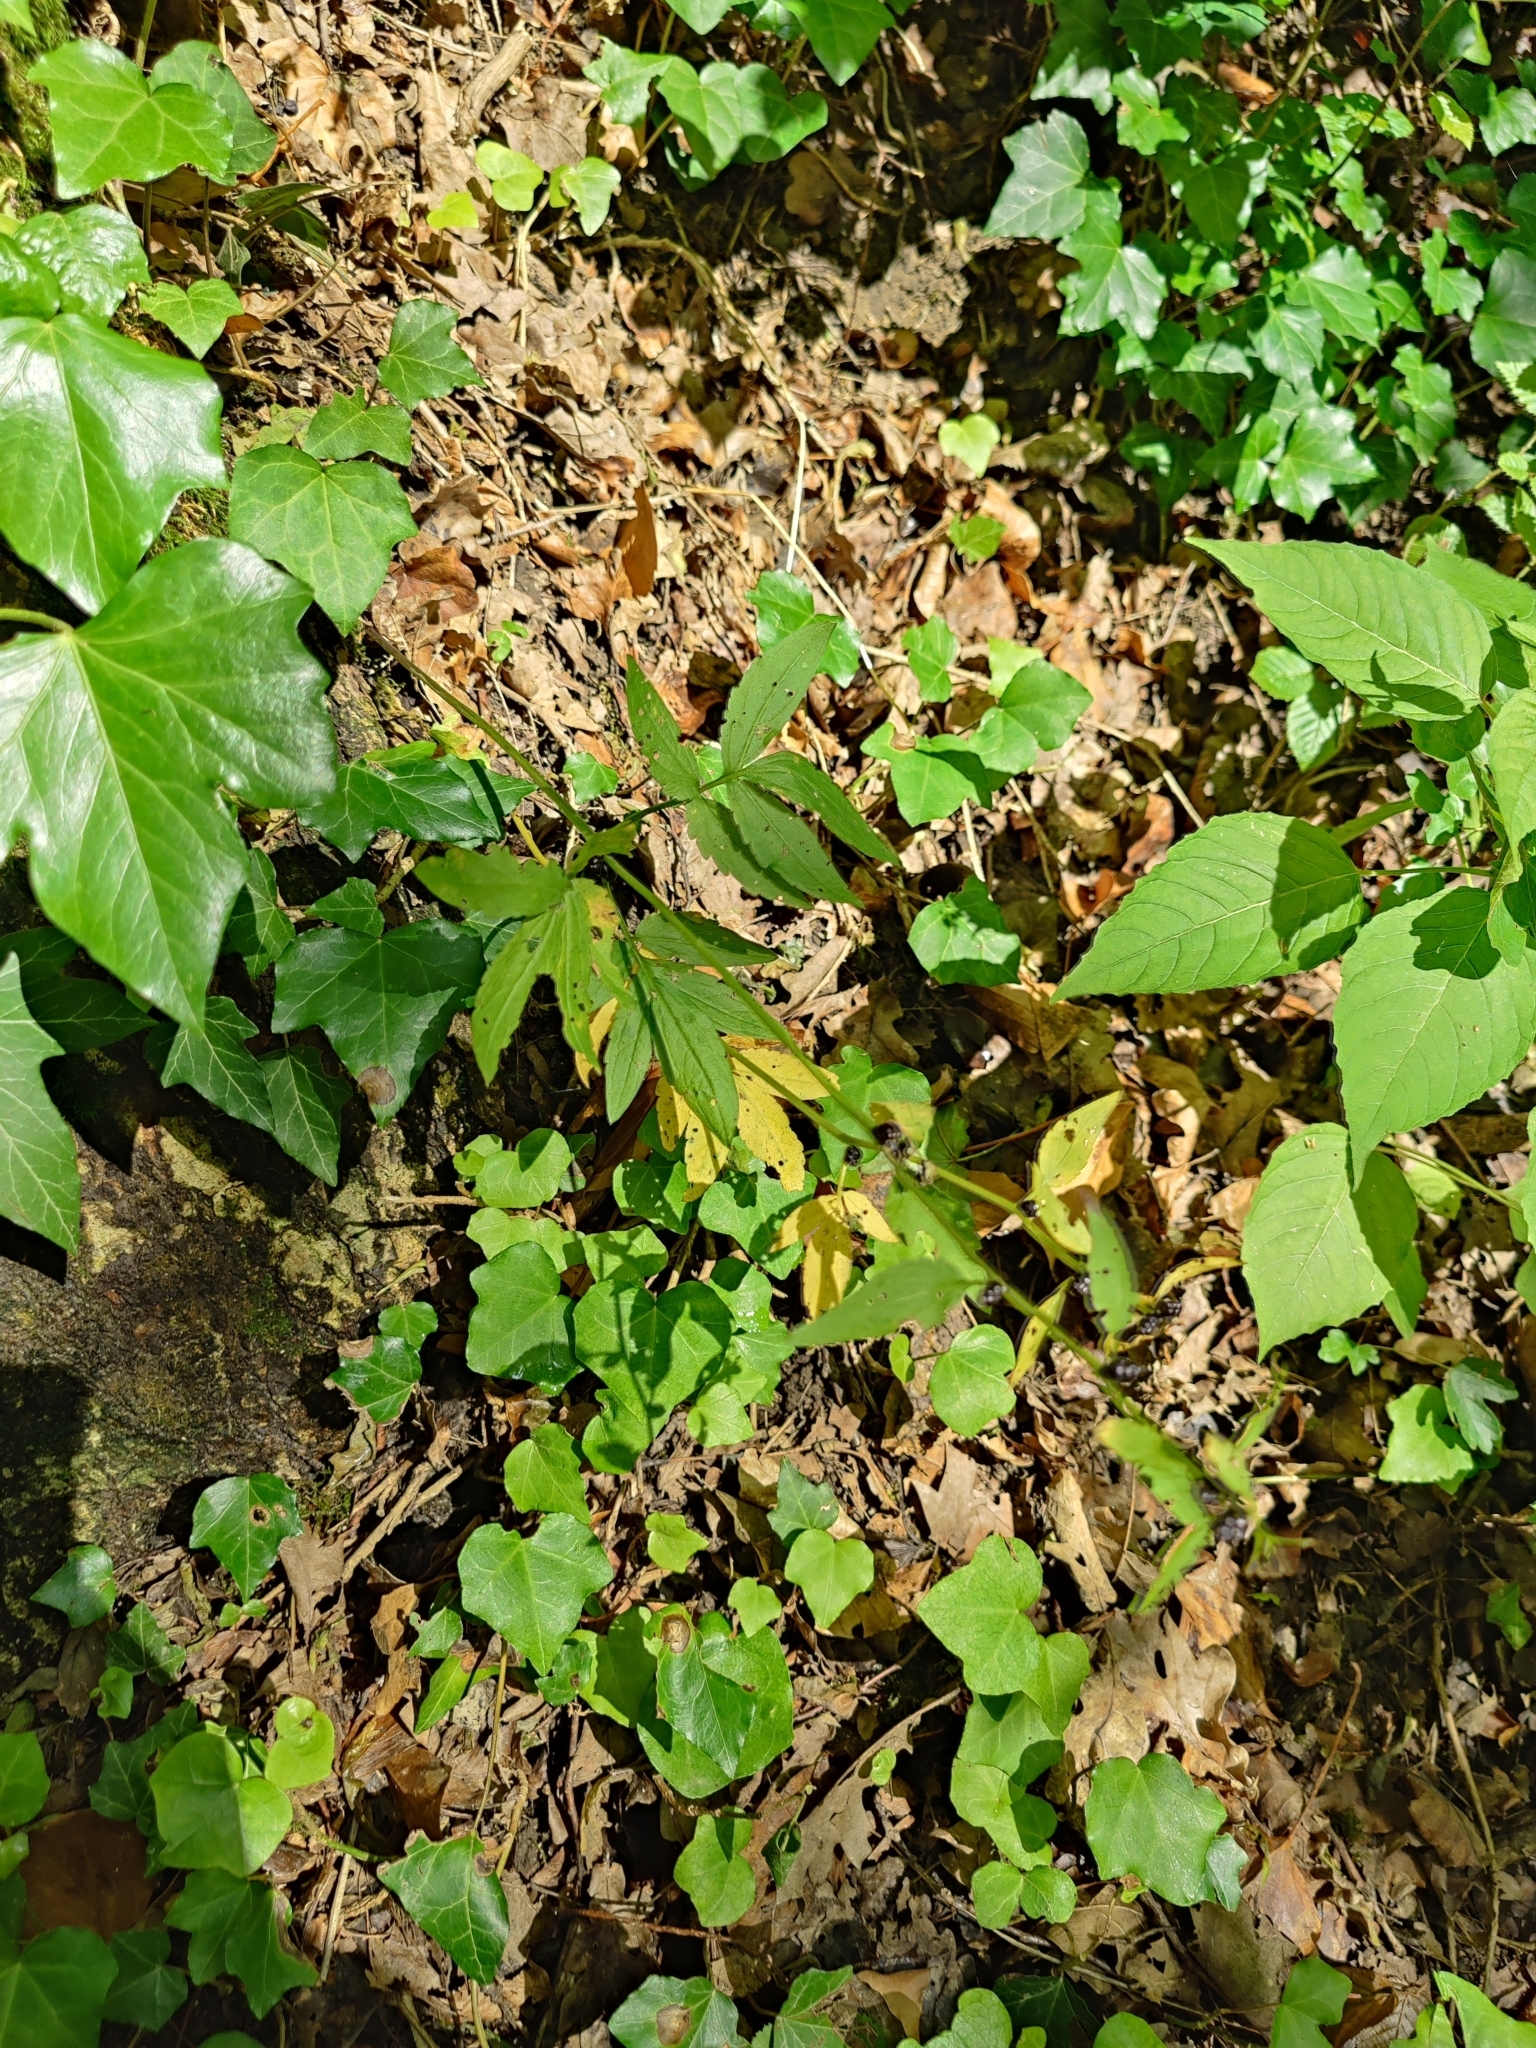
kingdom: Plantae
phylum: Tracheophyta
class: Magnoliopsida
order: Brassicales
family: Brassicaceae
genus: Cardamine
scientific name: Cardamine bulbifera
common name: Coralroot bittercress
